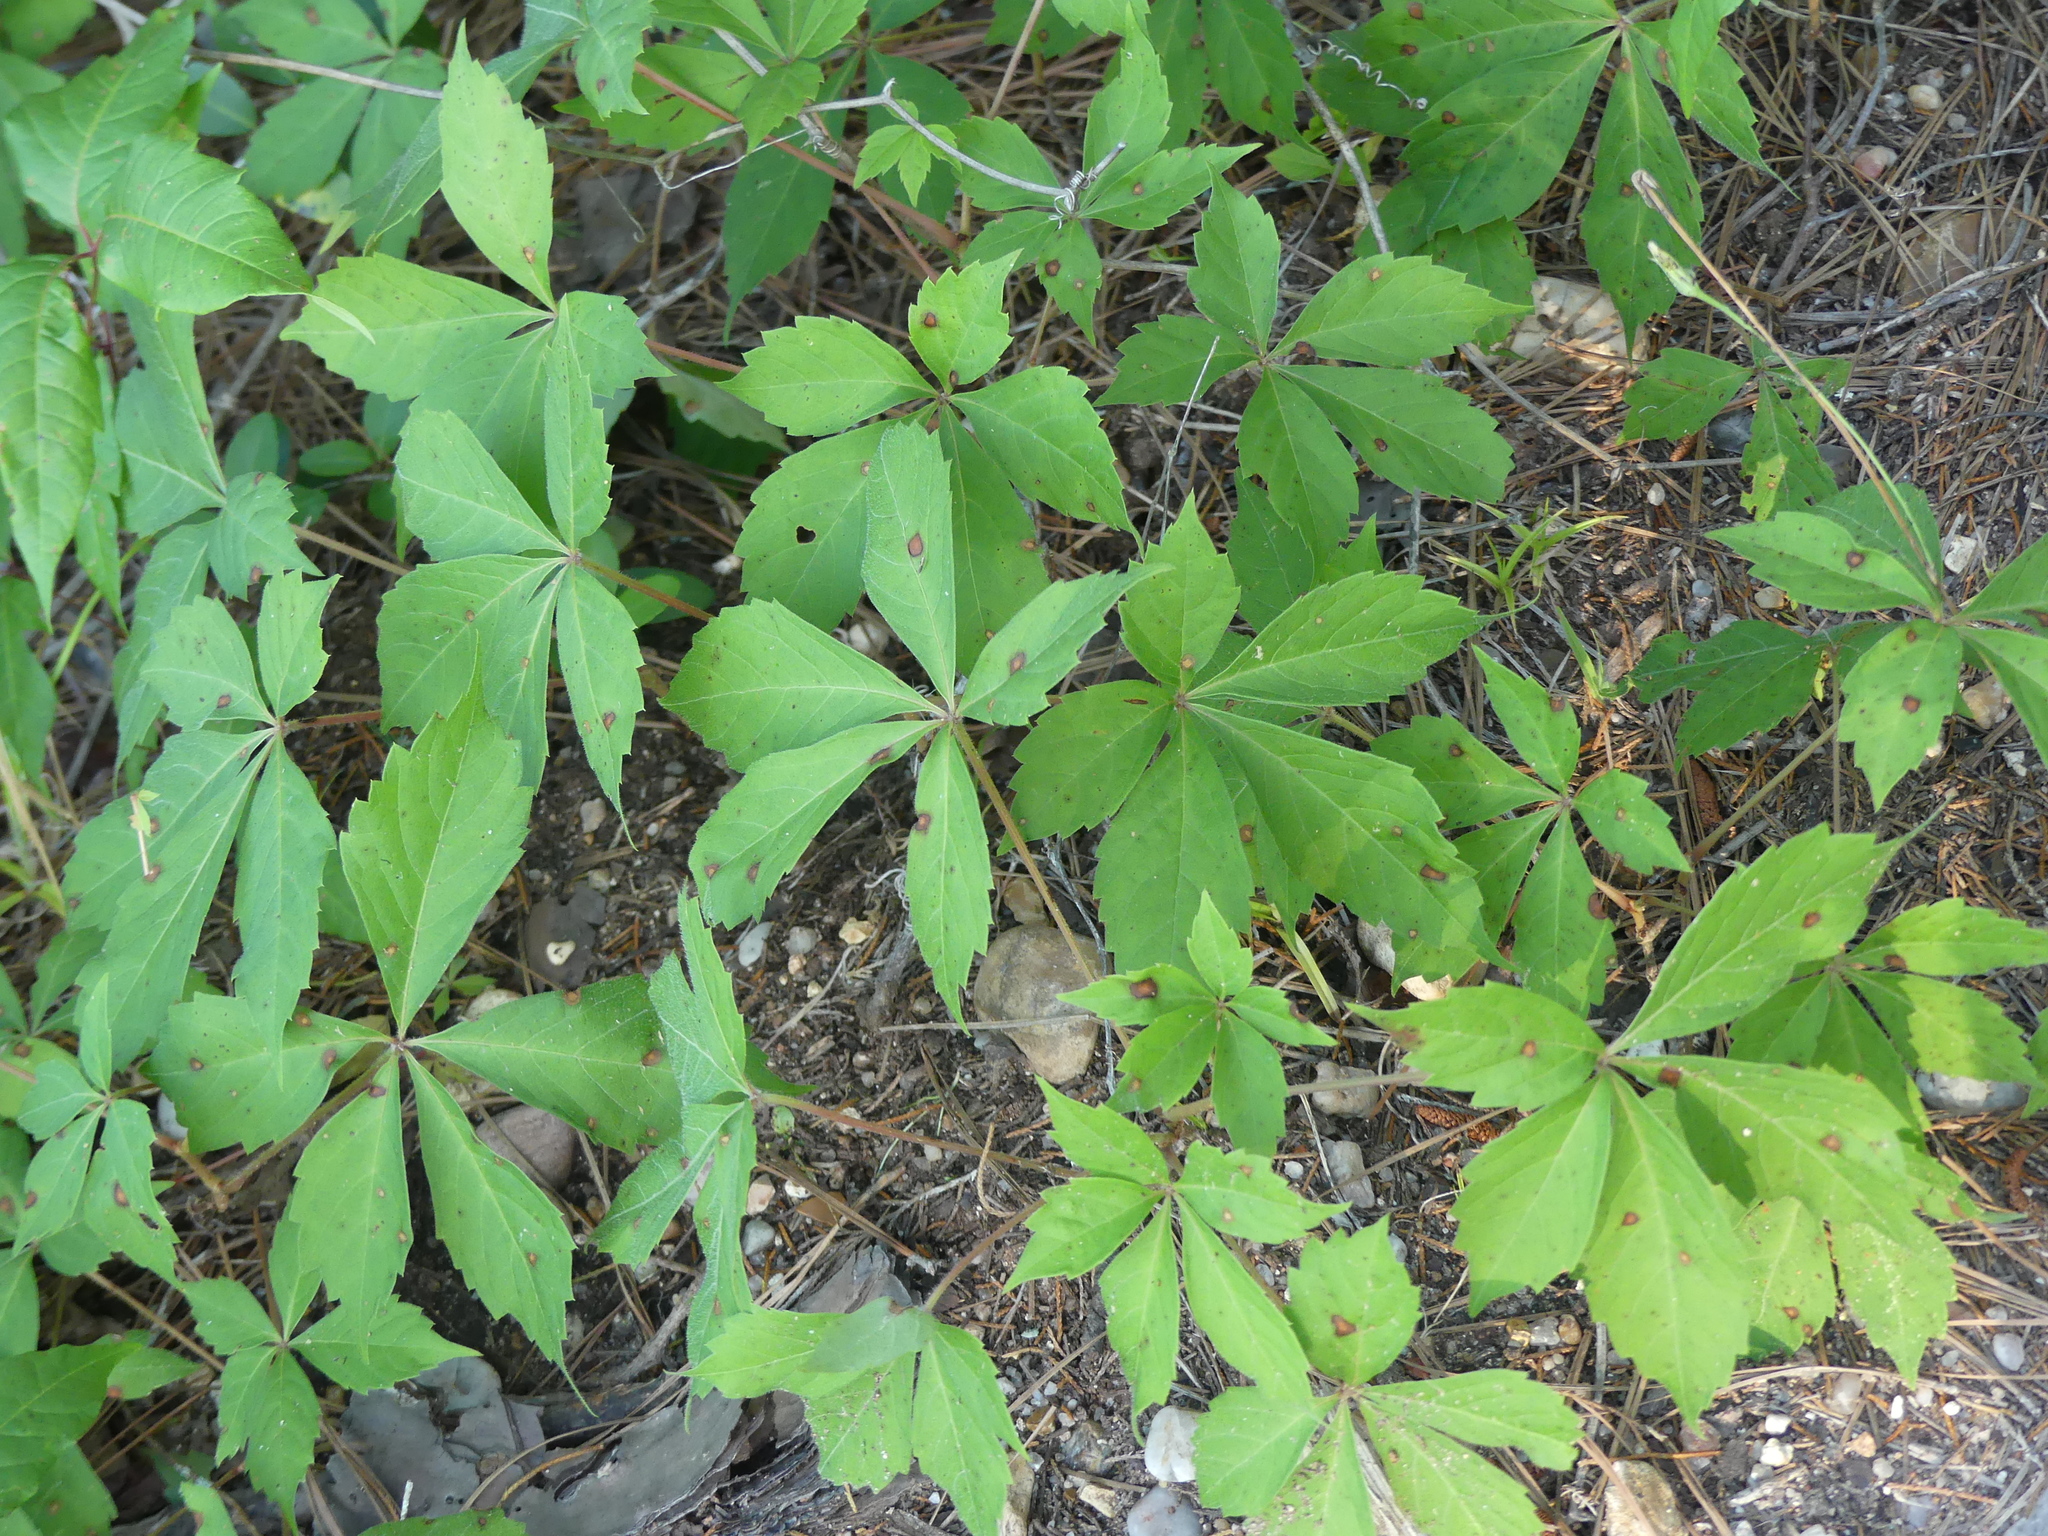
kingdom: Plantae
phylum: Tracheophyta
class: Magnoliopsida
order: Vitales
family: Vitaceae
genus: Parthenocissus
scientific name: Parthenocissus quinquefolia
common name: Virginia-creeper
